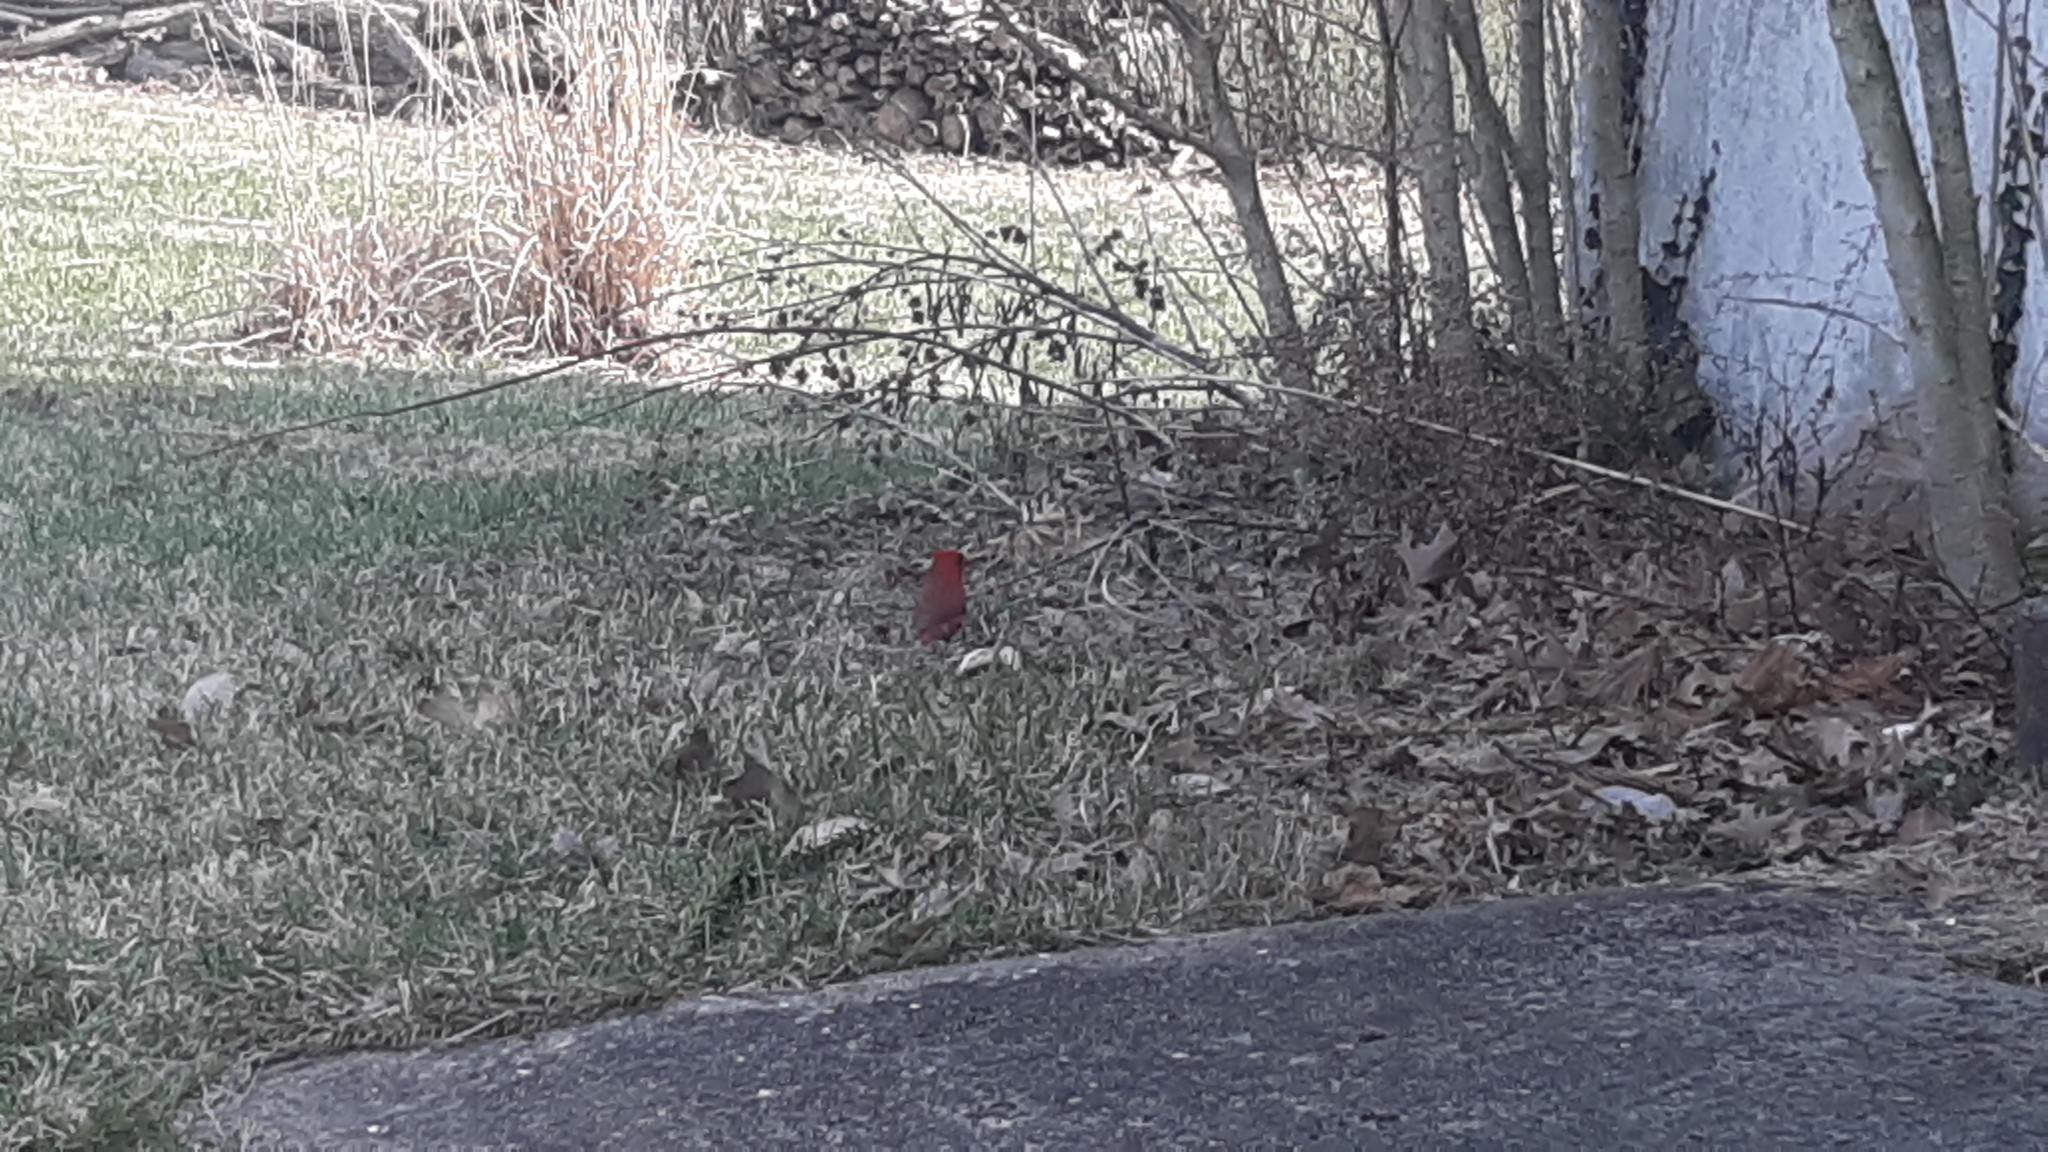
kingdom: Animalia
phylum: Chordata
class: Aves
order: Passeriformes
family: Cardinalidae
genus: Cardinalis
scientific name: Cardinalis cardinalis
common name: Northern cardinal
